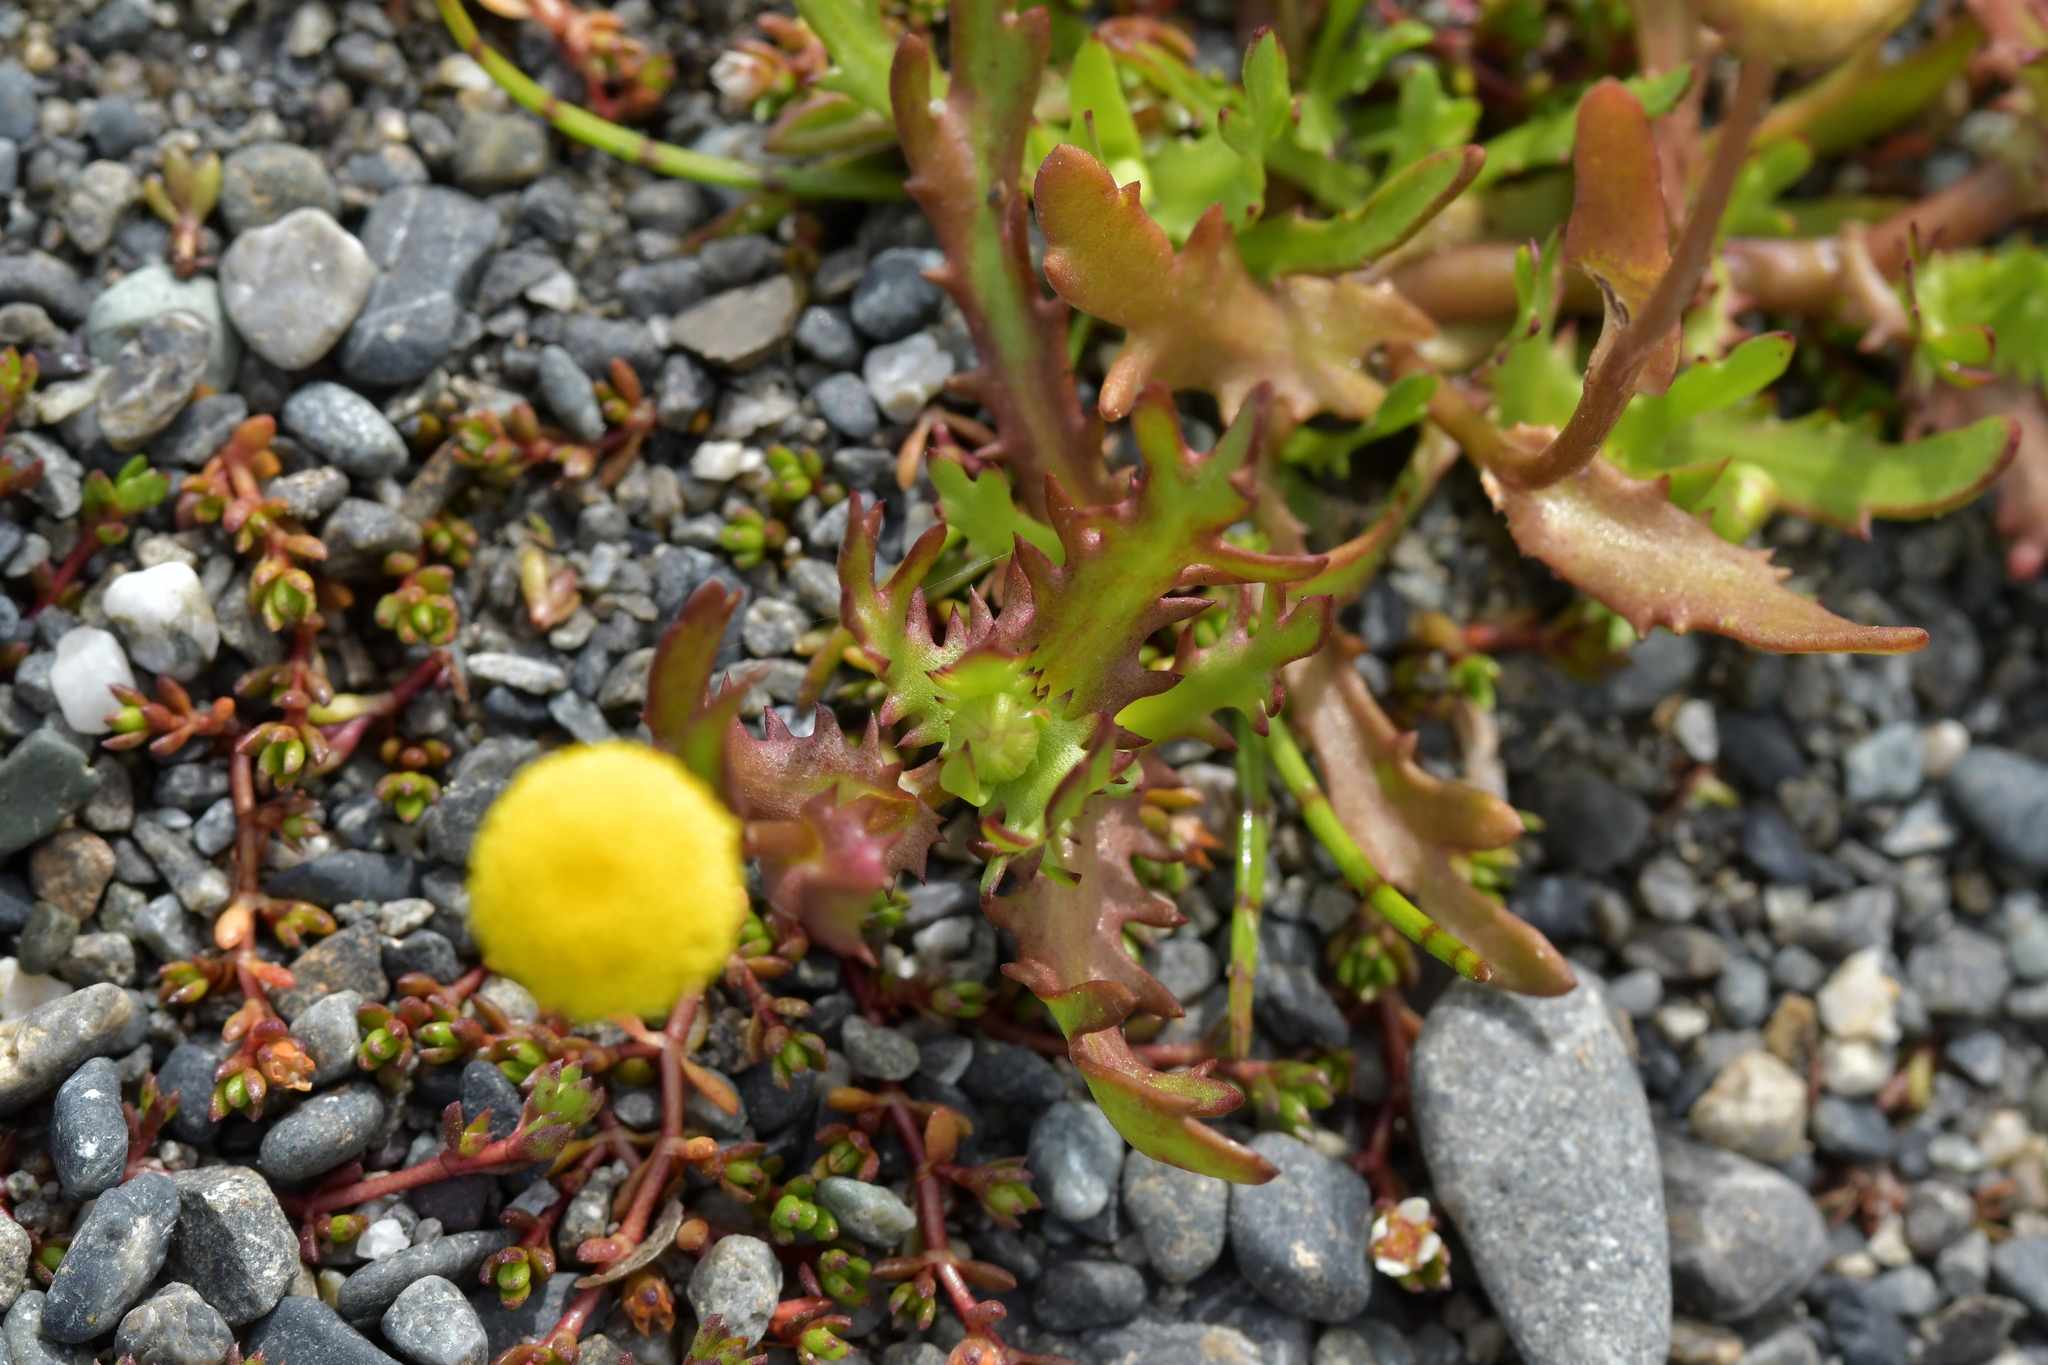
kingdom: Plantae
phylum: Tracheophyta
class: Magnoliopsida
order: Asterales
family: Asteraceae
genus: Cotula
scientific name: Cotula coronopifolia
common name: Buttonweed
